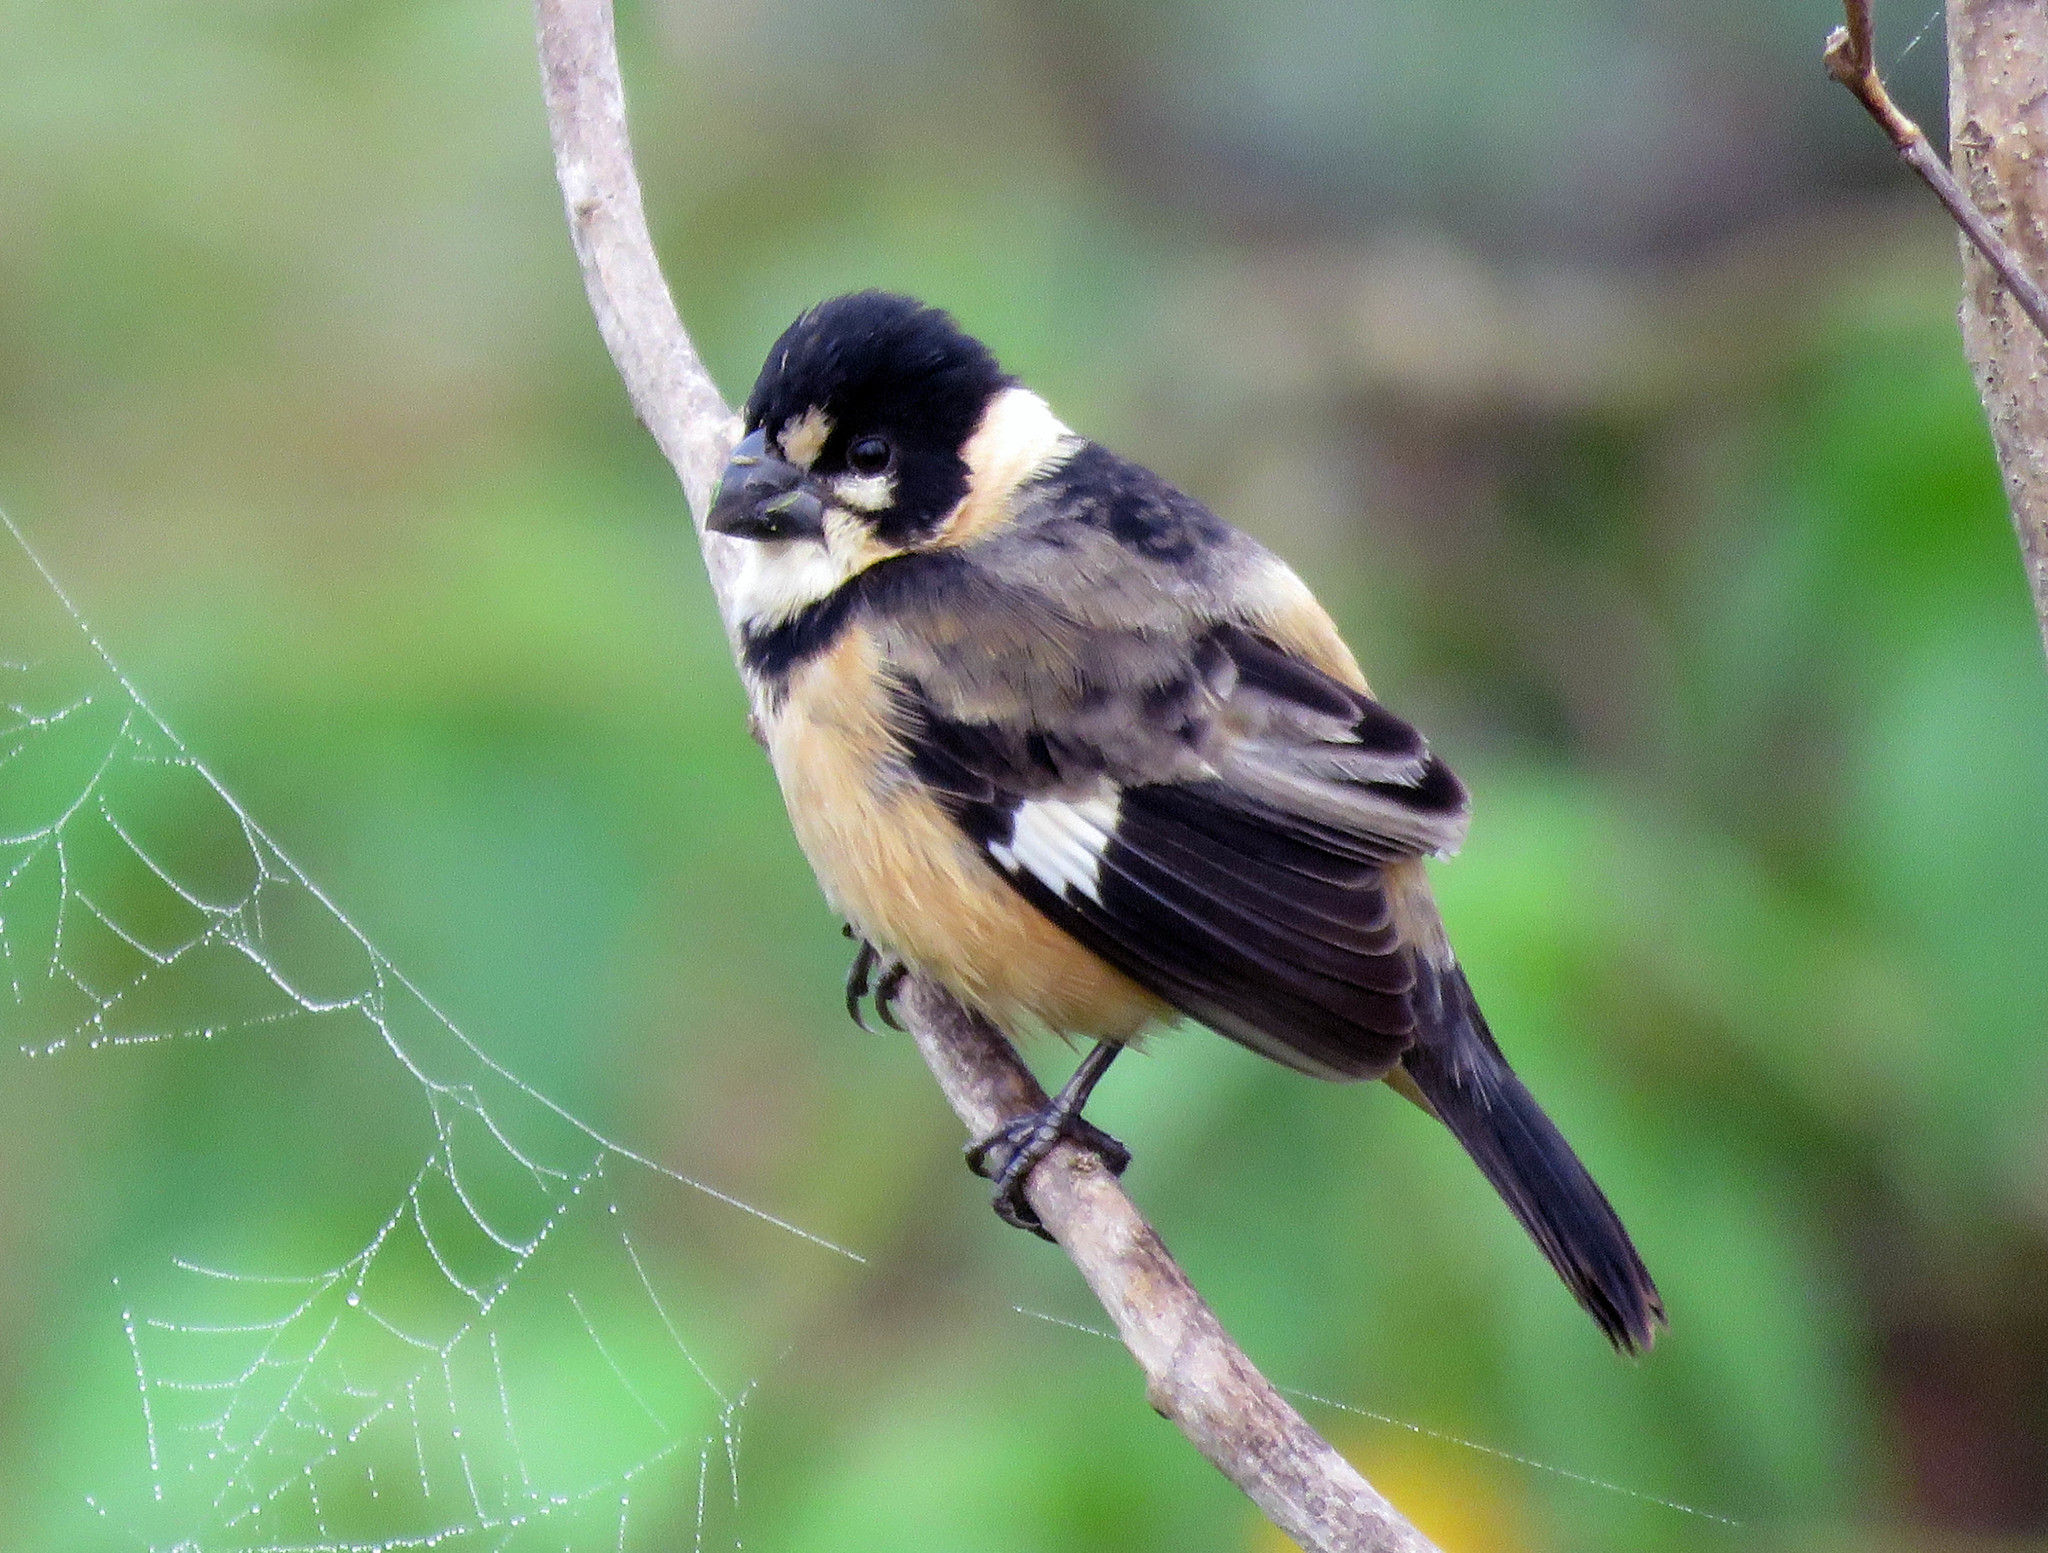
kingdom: Animalia
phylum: Chordata
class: Aves
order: Passeriformes
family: Thraupidae
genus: Sporophila
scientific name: Sporophila collaris
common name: Rusty-collared seedeater
